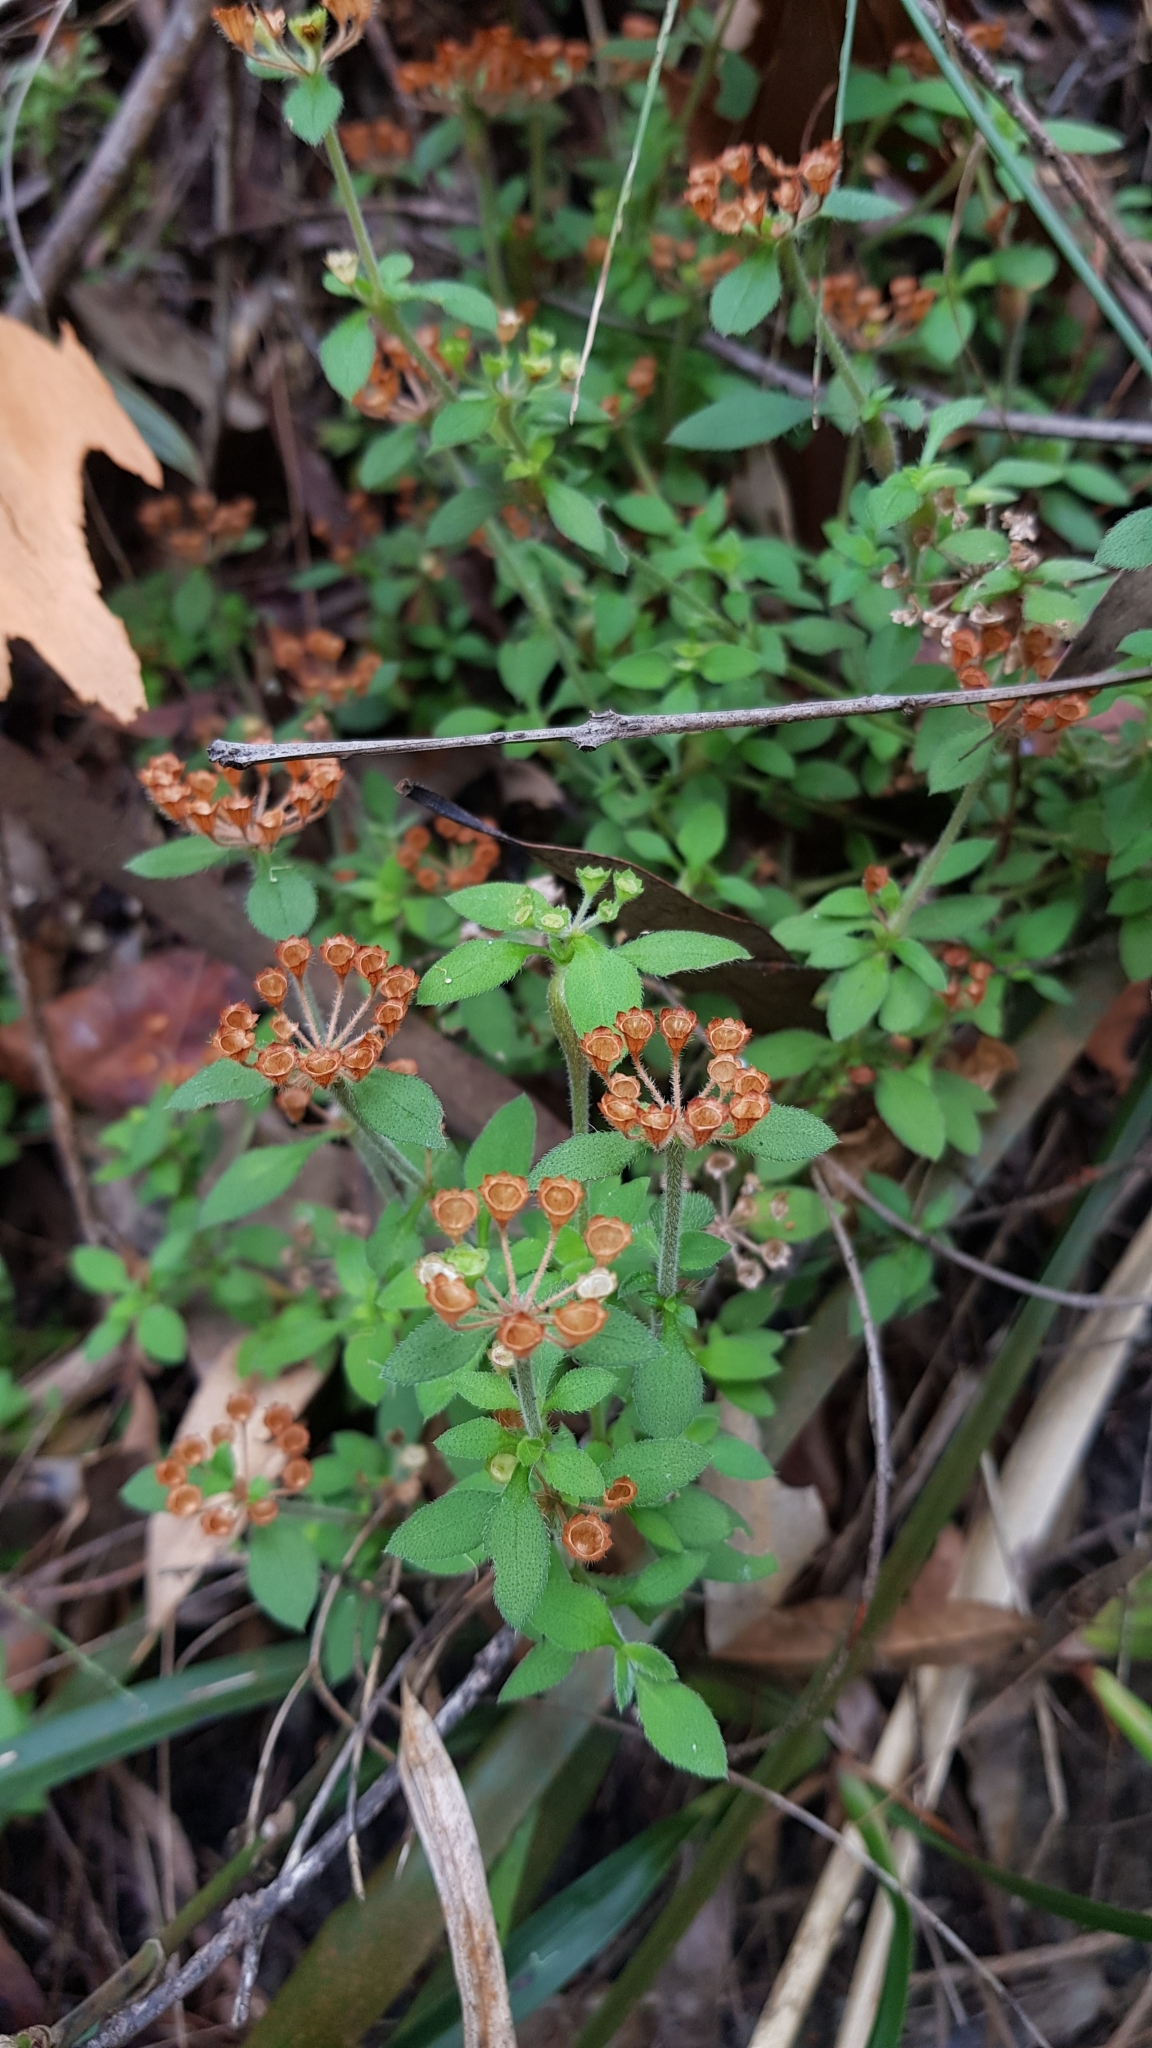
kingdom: Plantae
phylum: Tracheophyta
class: Magnoliopsida
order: Gentianales
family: Rubiaceae
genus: Pomax
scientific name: Pomax umbellata
